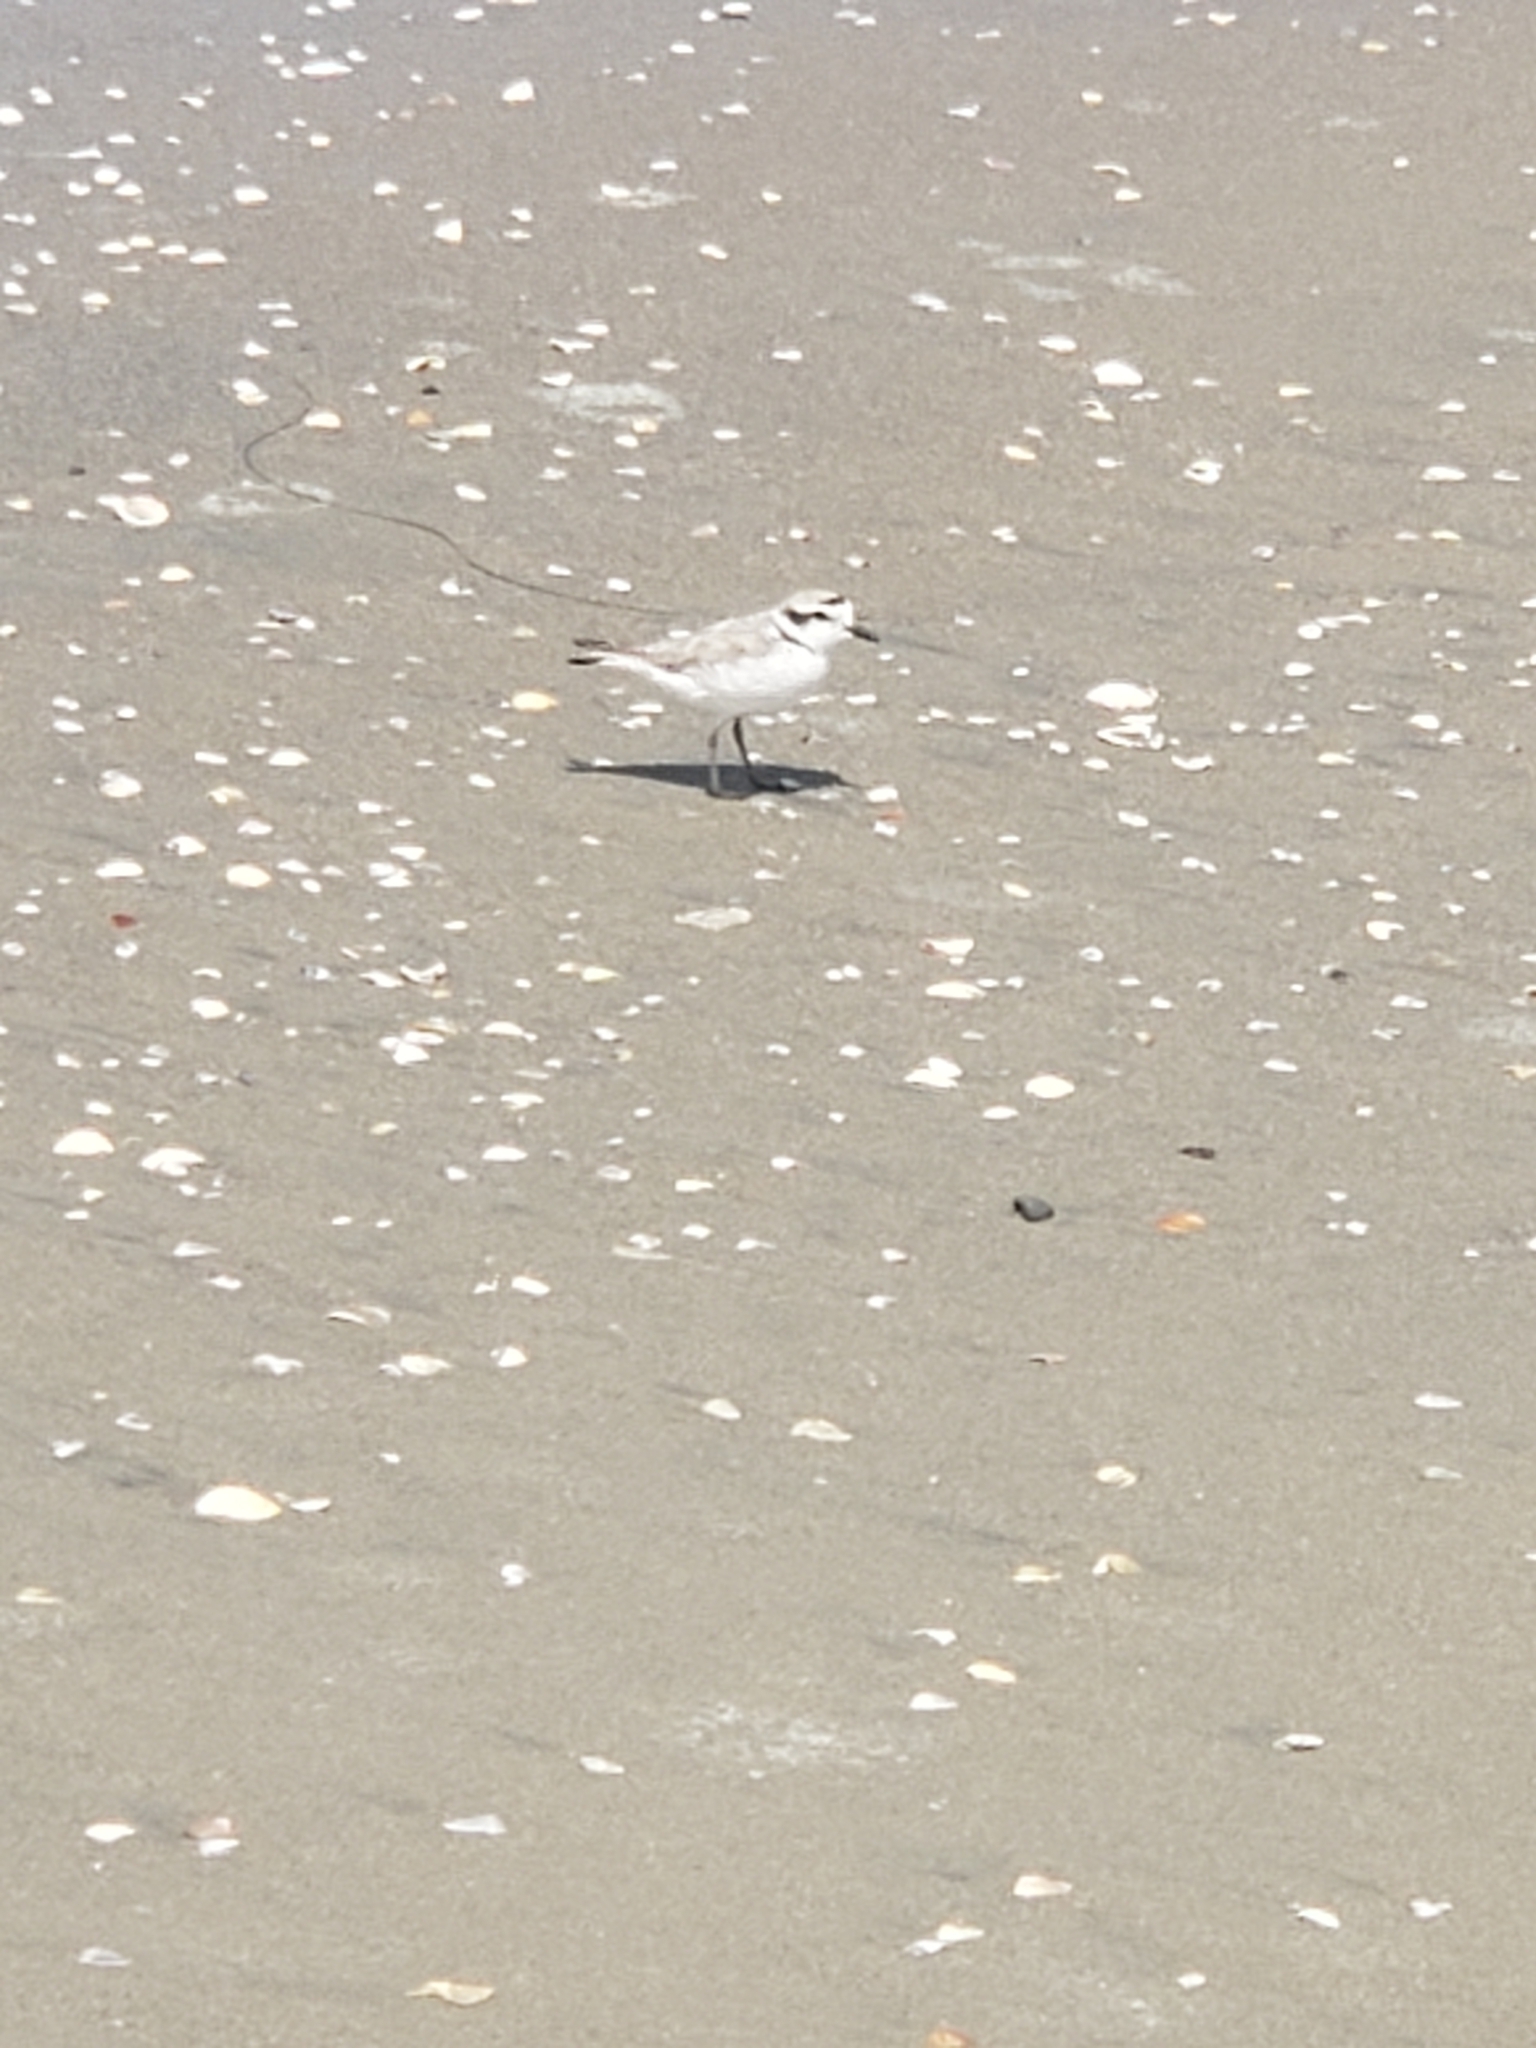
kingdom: Animalia
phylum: Chordata
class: Aves
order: Charadriiformes
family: Charadriidae
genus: Anarhynchus
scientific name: Anarhynchus
